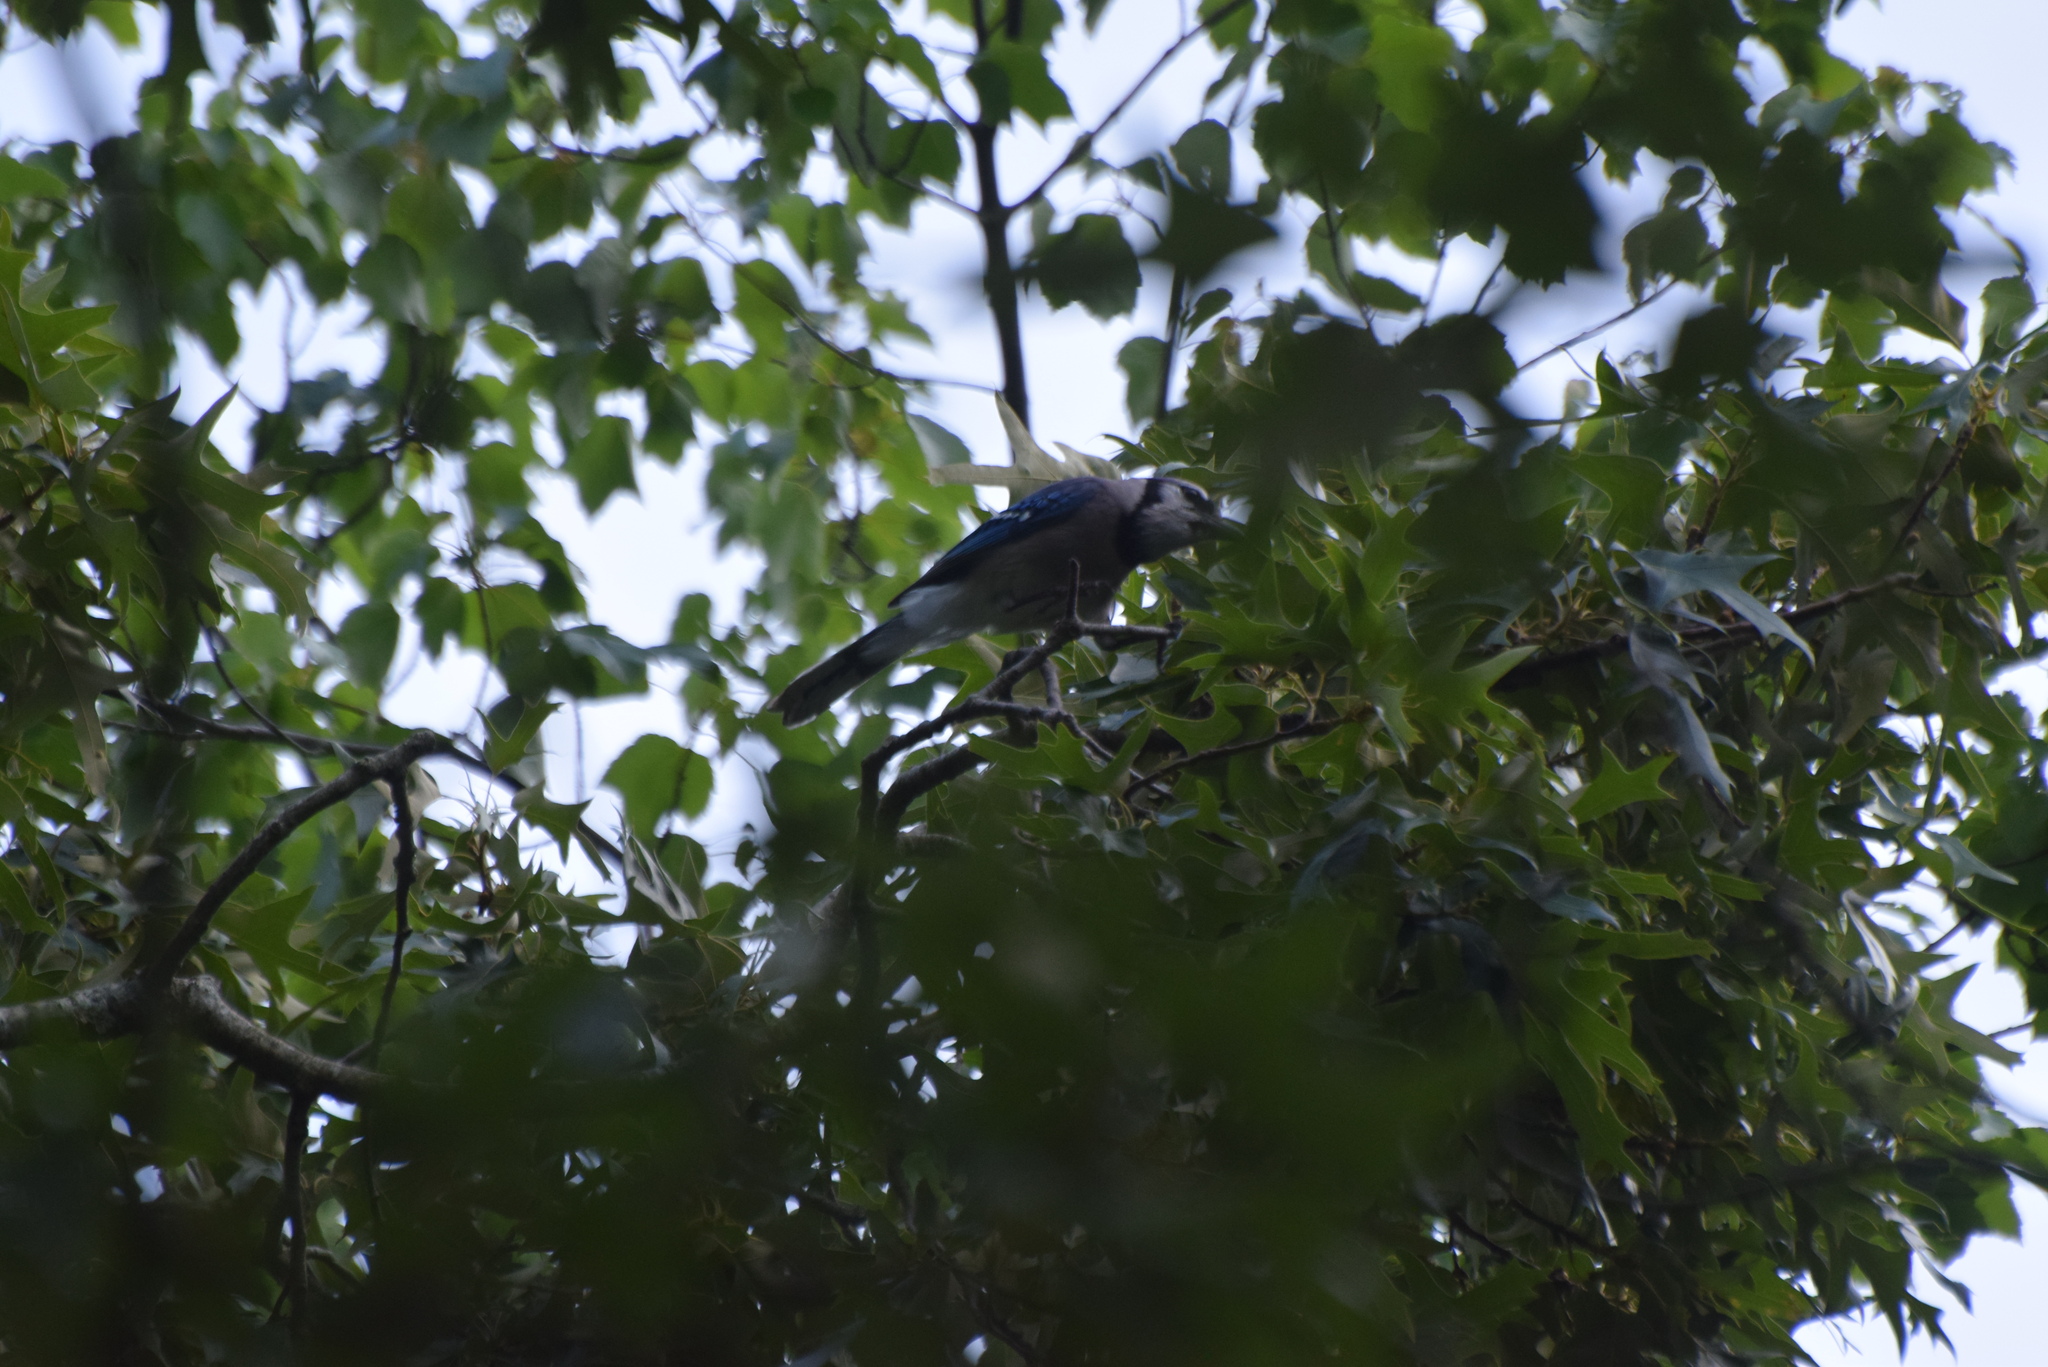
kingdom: Animalia
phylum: Chordata
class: Aves
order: Passeriformes
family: Corvidae
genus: Cyanocitta
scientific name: Cyanocitta cristata
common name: Blue jay
